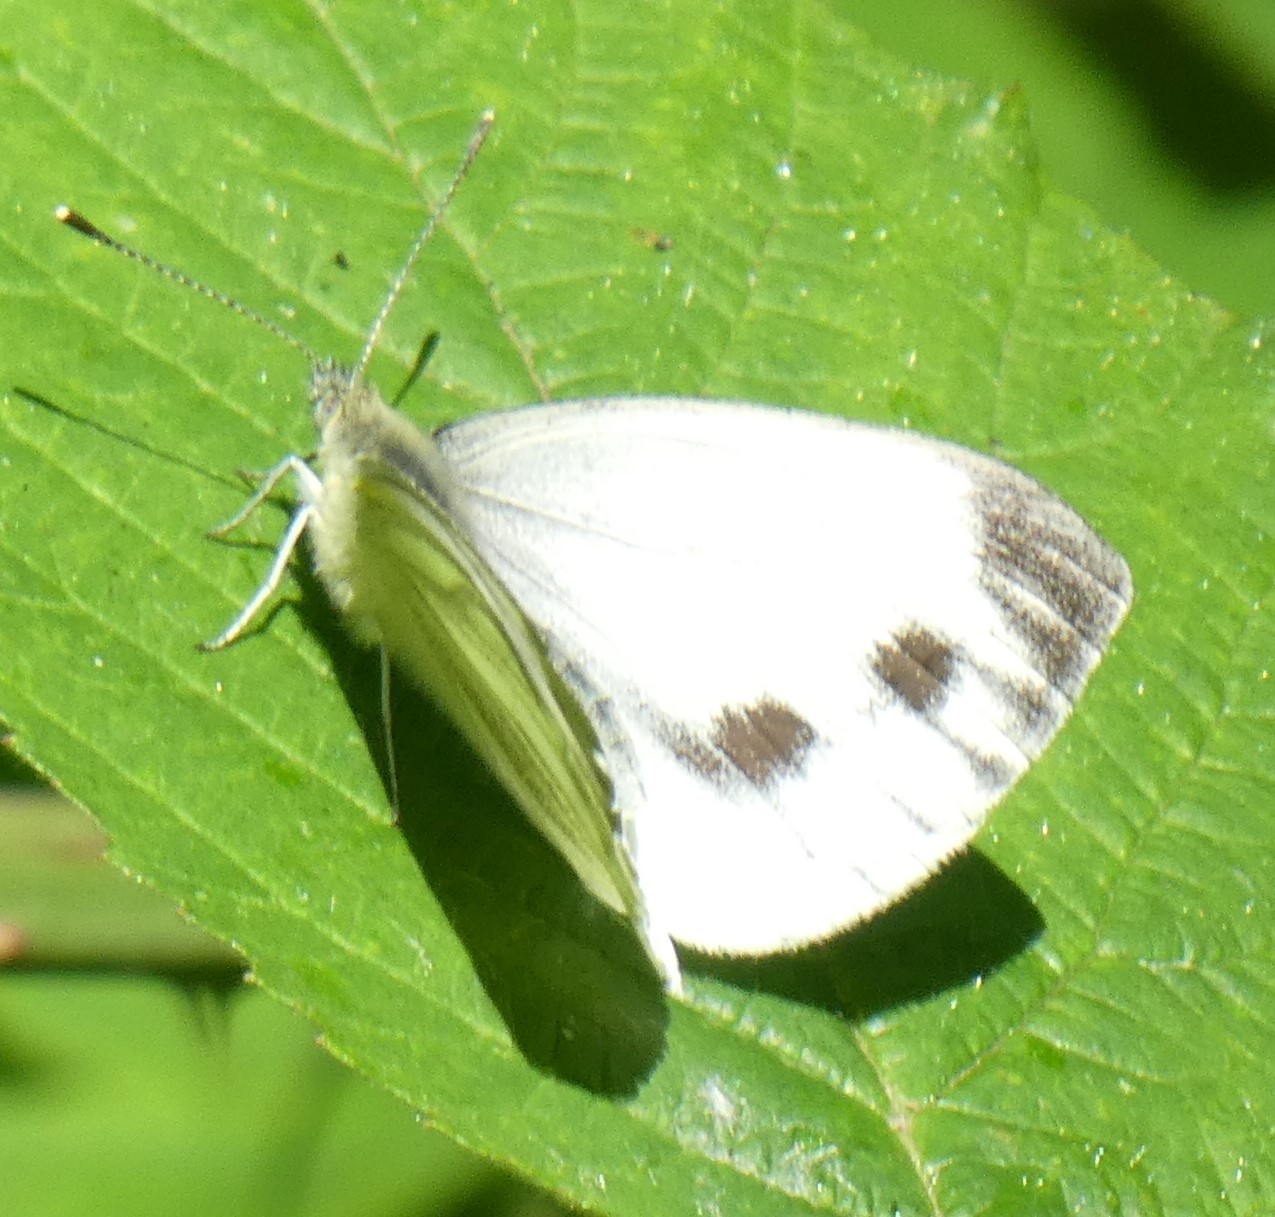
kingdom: Animalia
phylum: Arthropoda
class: Insecta
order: Lepidoptera
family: Pieridae
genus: Pieris
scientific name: Pieris napi
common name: Green-veined white
